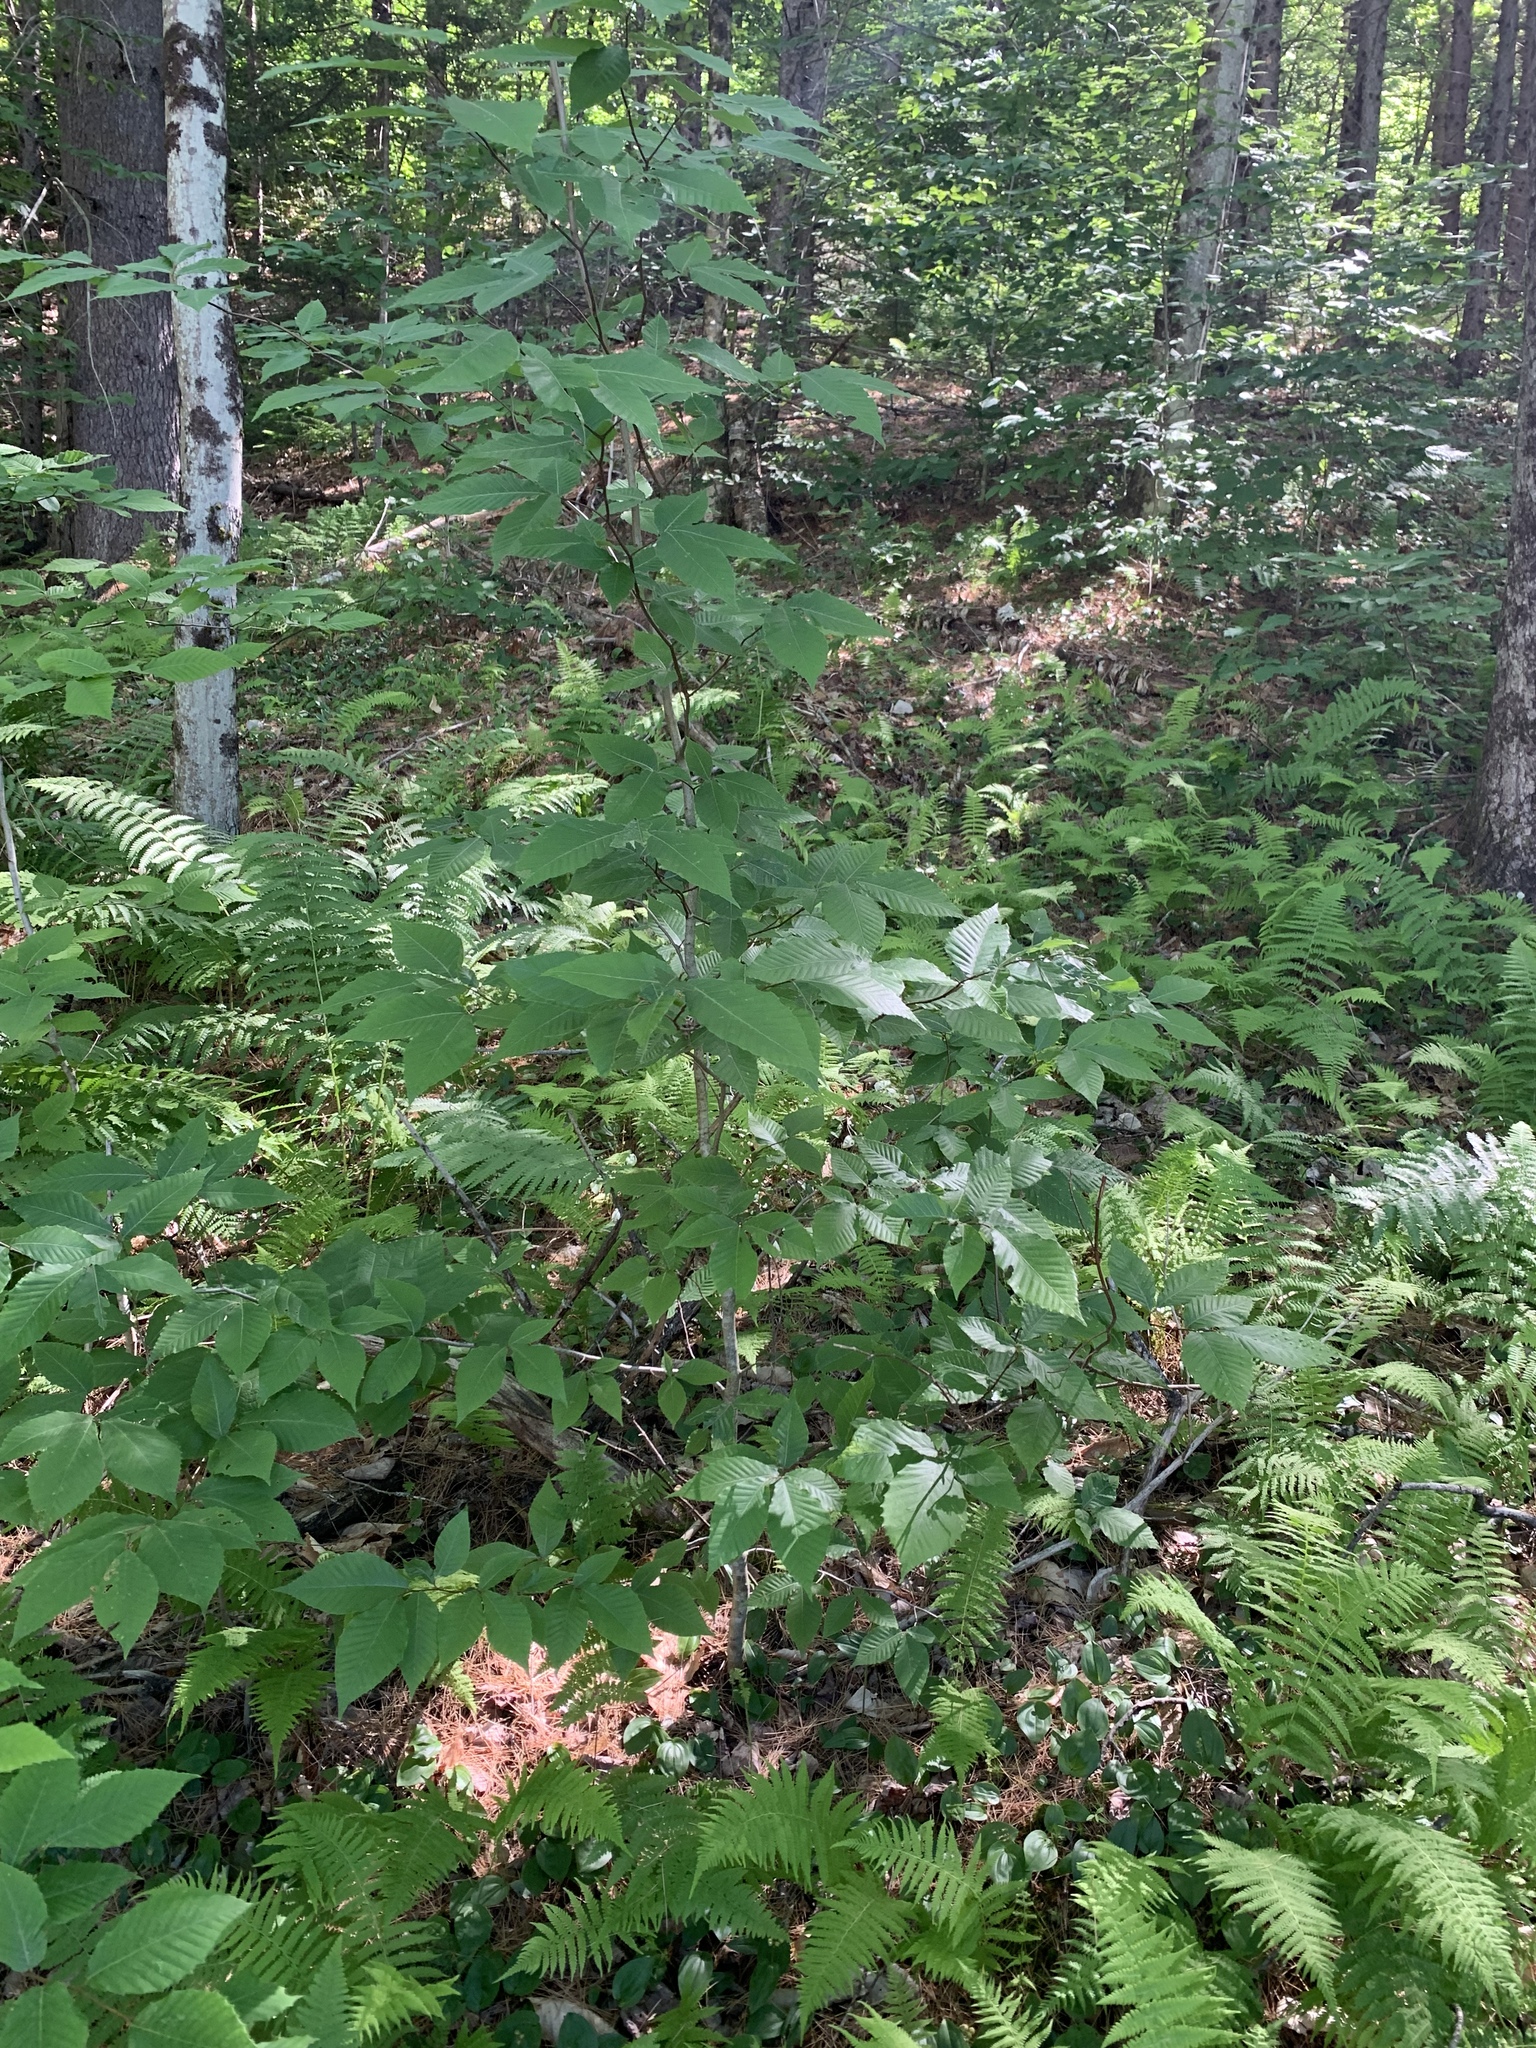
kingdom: Plantae
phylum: Tracheophyta
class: Magnoliopsida
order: Fagales
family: Fagaceae
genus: Fagus
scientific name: Fagus grandifolia
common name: American beech
